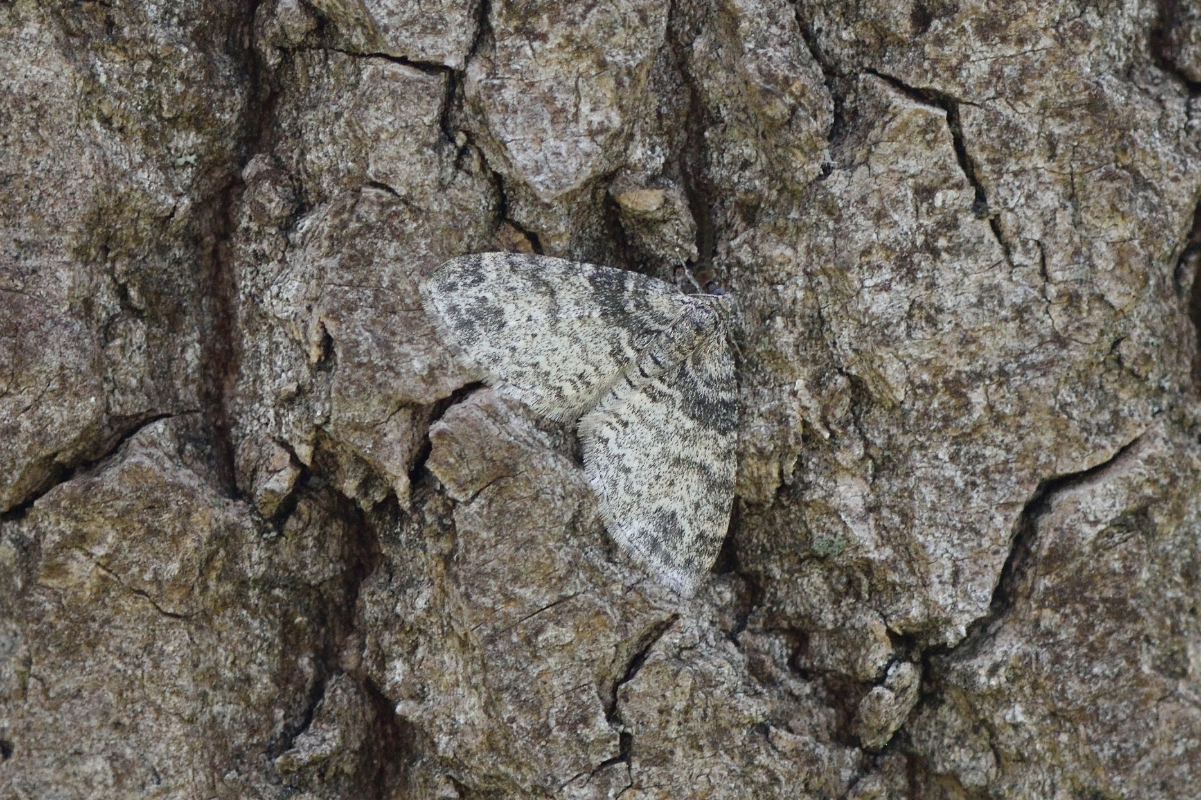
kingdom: Animalia
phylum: Arthropoda
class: Insecta
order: Lepidoptera
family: Geometridae
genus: Lobophora
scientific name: Lobophora halterata
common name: Seraphim
